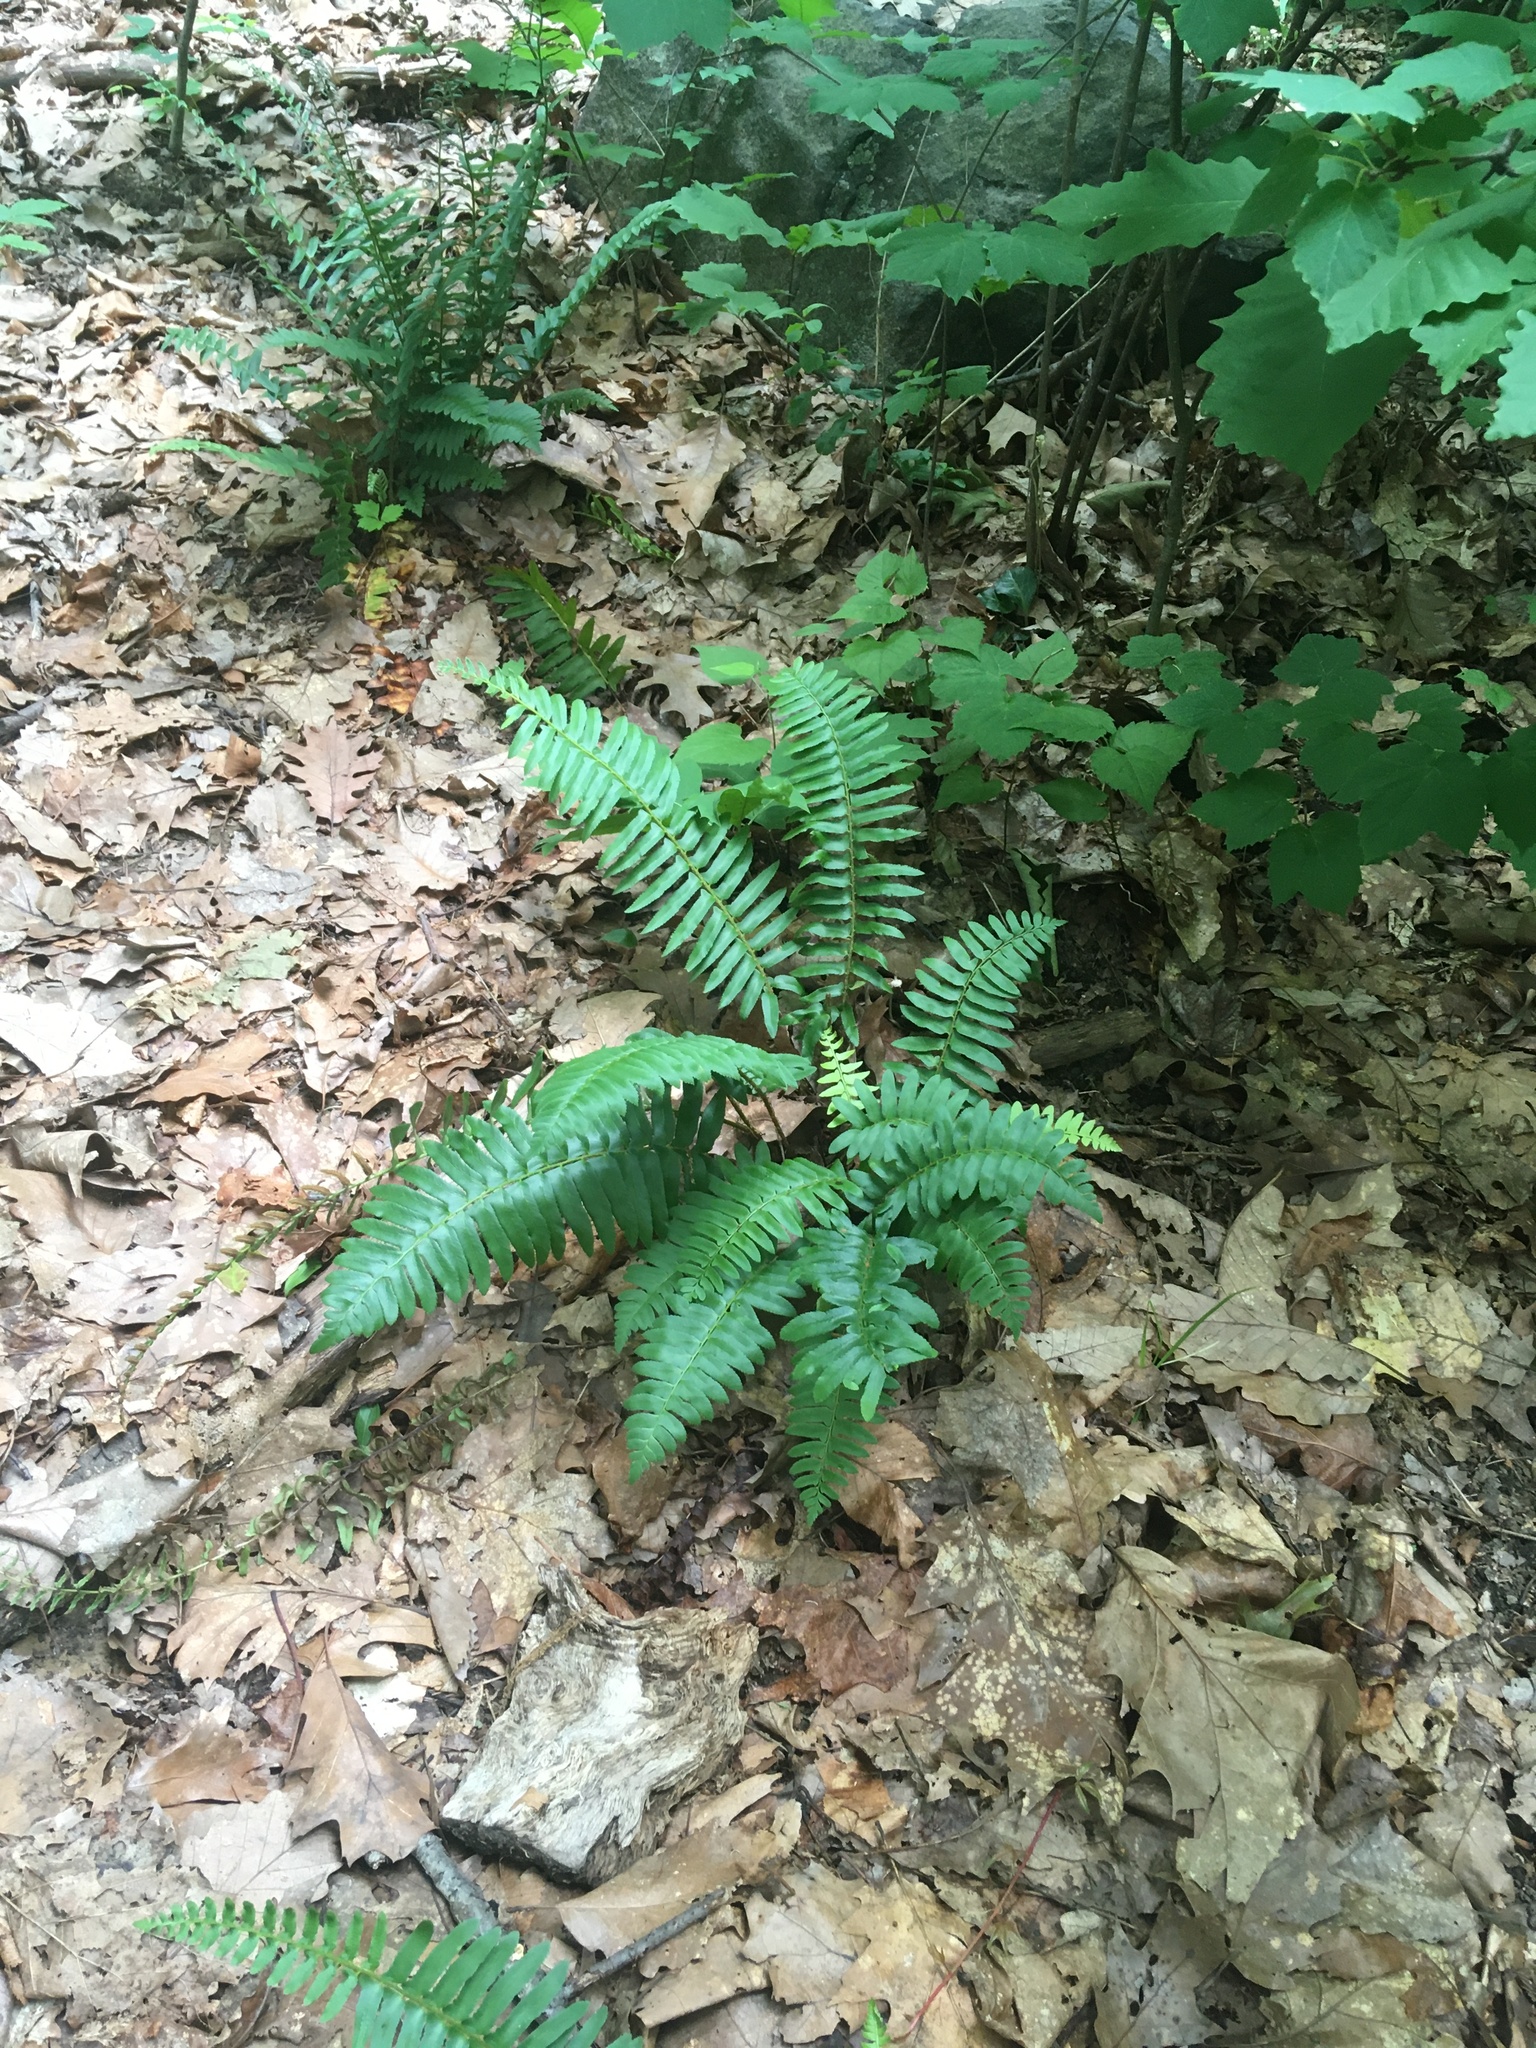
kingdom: Plantae
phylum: Tracheophyta
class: Polypodiopsida
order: Polypodiales
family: Dryopteridaceae
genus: Polystichum
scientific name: Polystichum acrostichoides
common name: Christmas fern
